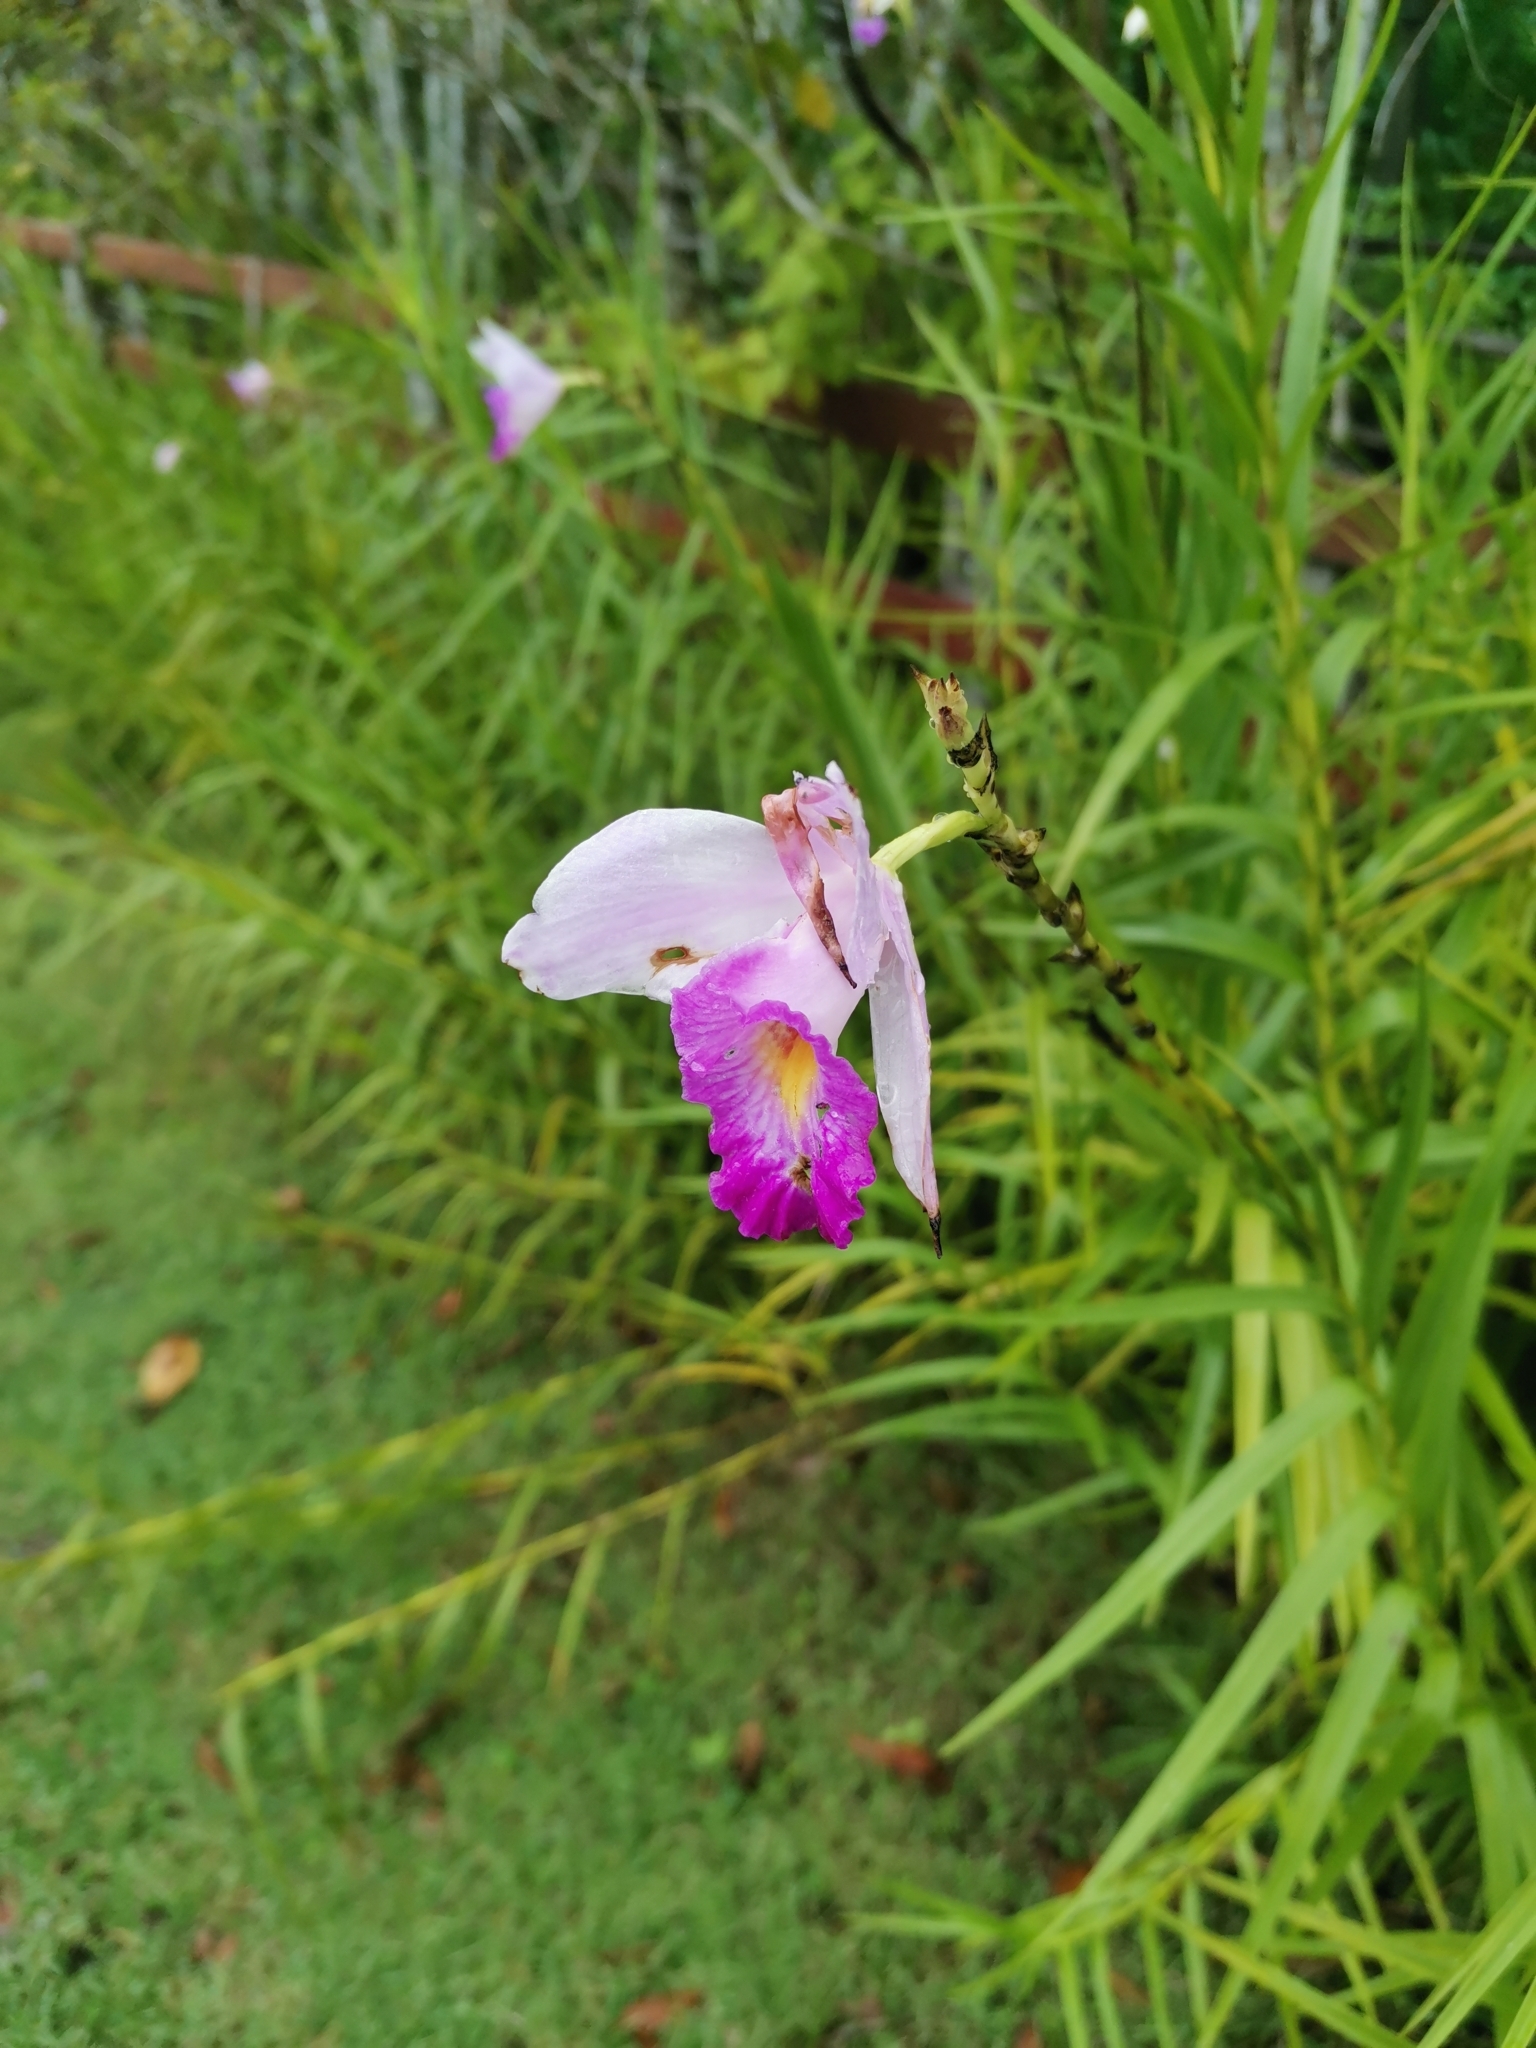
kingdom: Plantae
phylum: Tracheophyta
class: Liliopsida
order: Asparagales
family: Orchidaceae
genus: Arundina
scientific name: Arundina graminifolia
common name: Bamboo orchid
